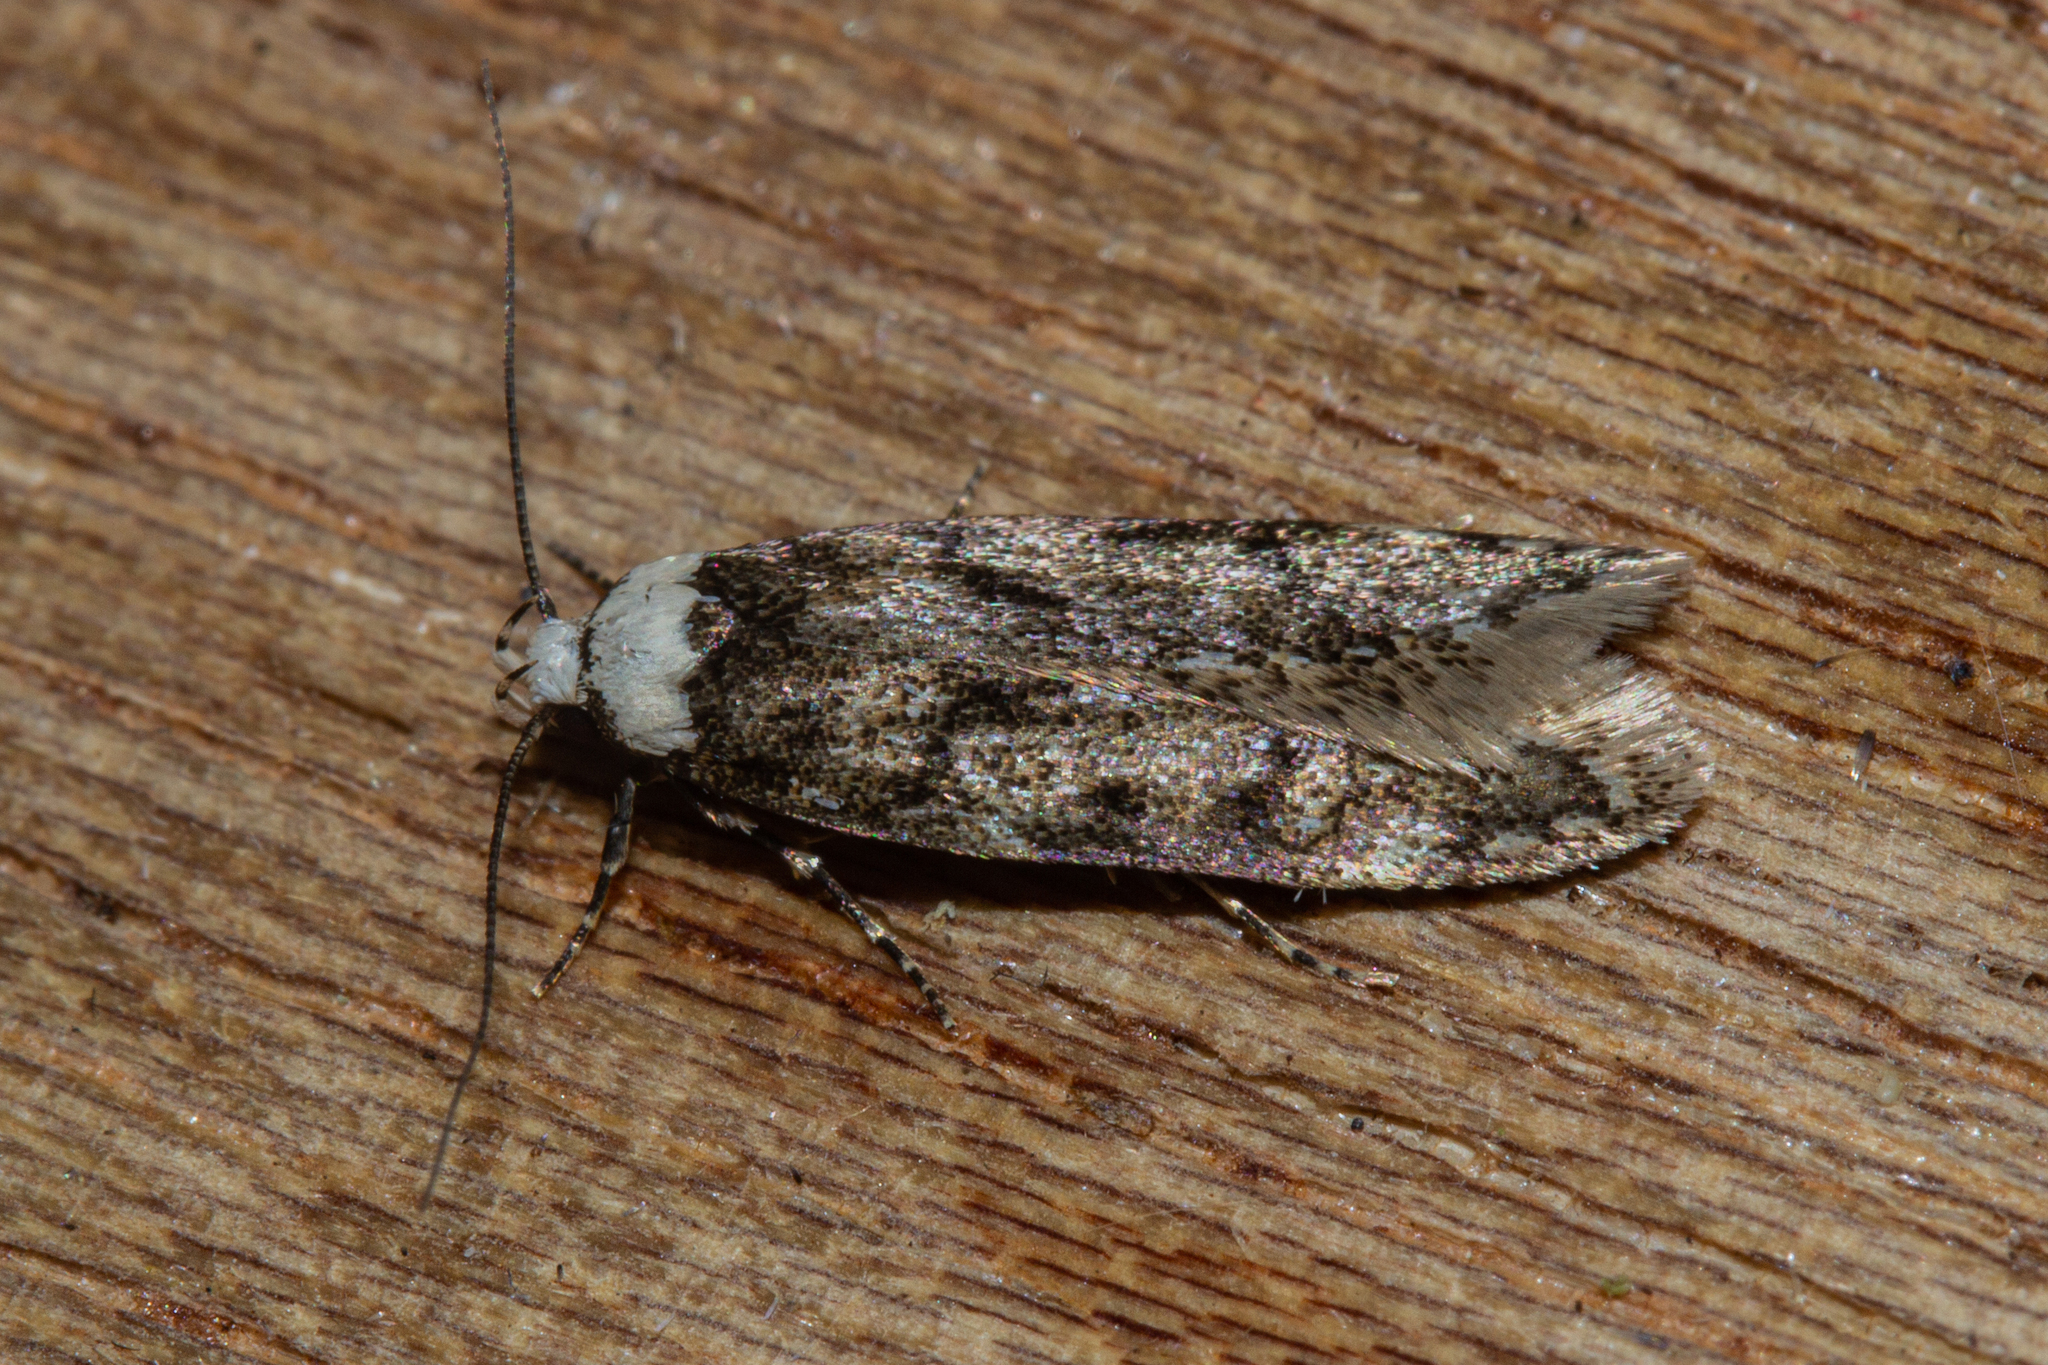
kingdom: Animalia
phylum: Arthropoda
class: Insecta
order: Lepidoptera
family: Oecophoridae
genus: Endrosis
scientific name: Endrosis sarcitrella
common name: White-shouldered house moth
